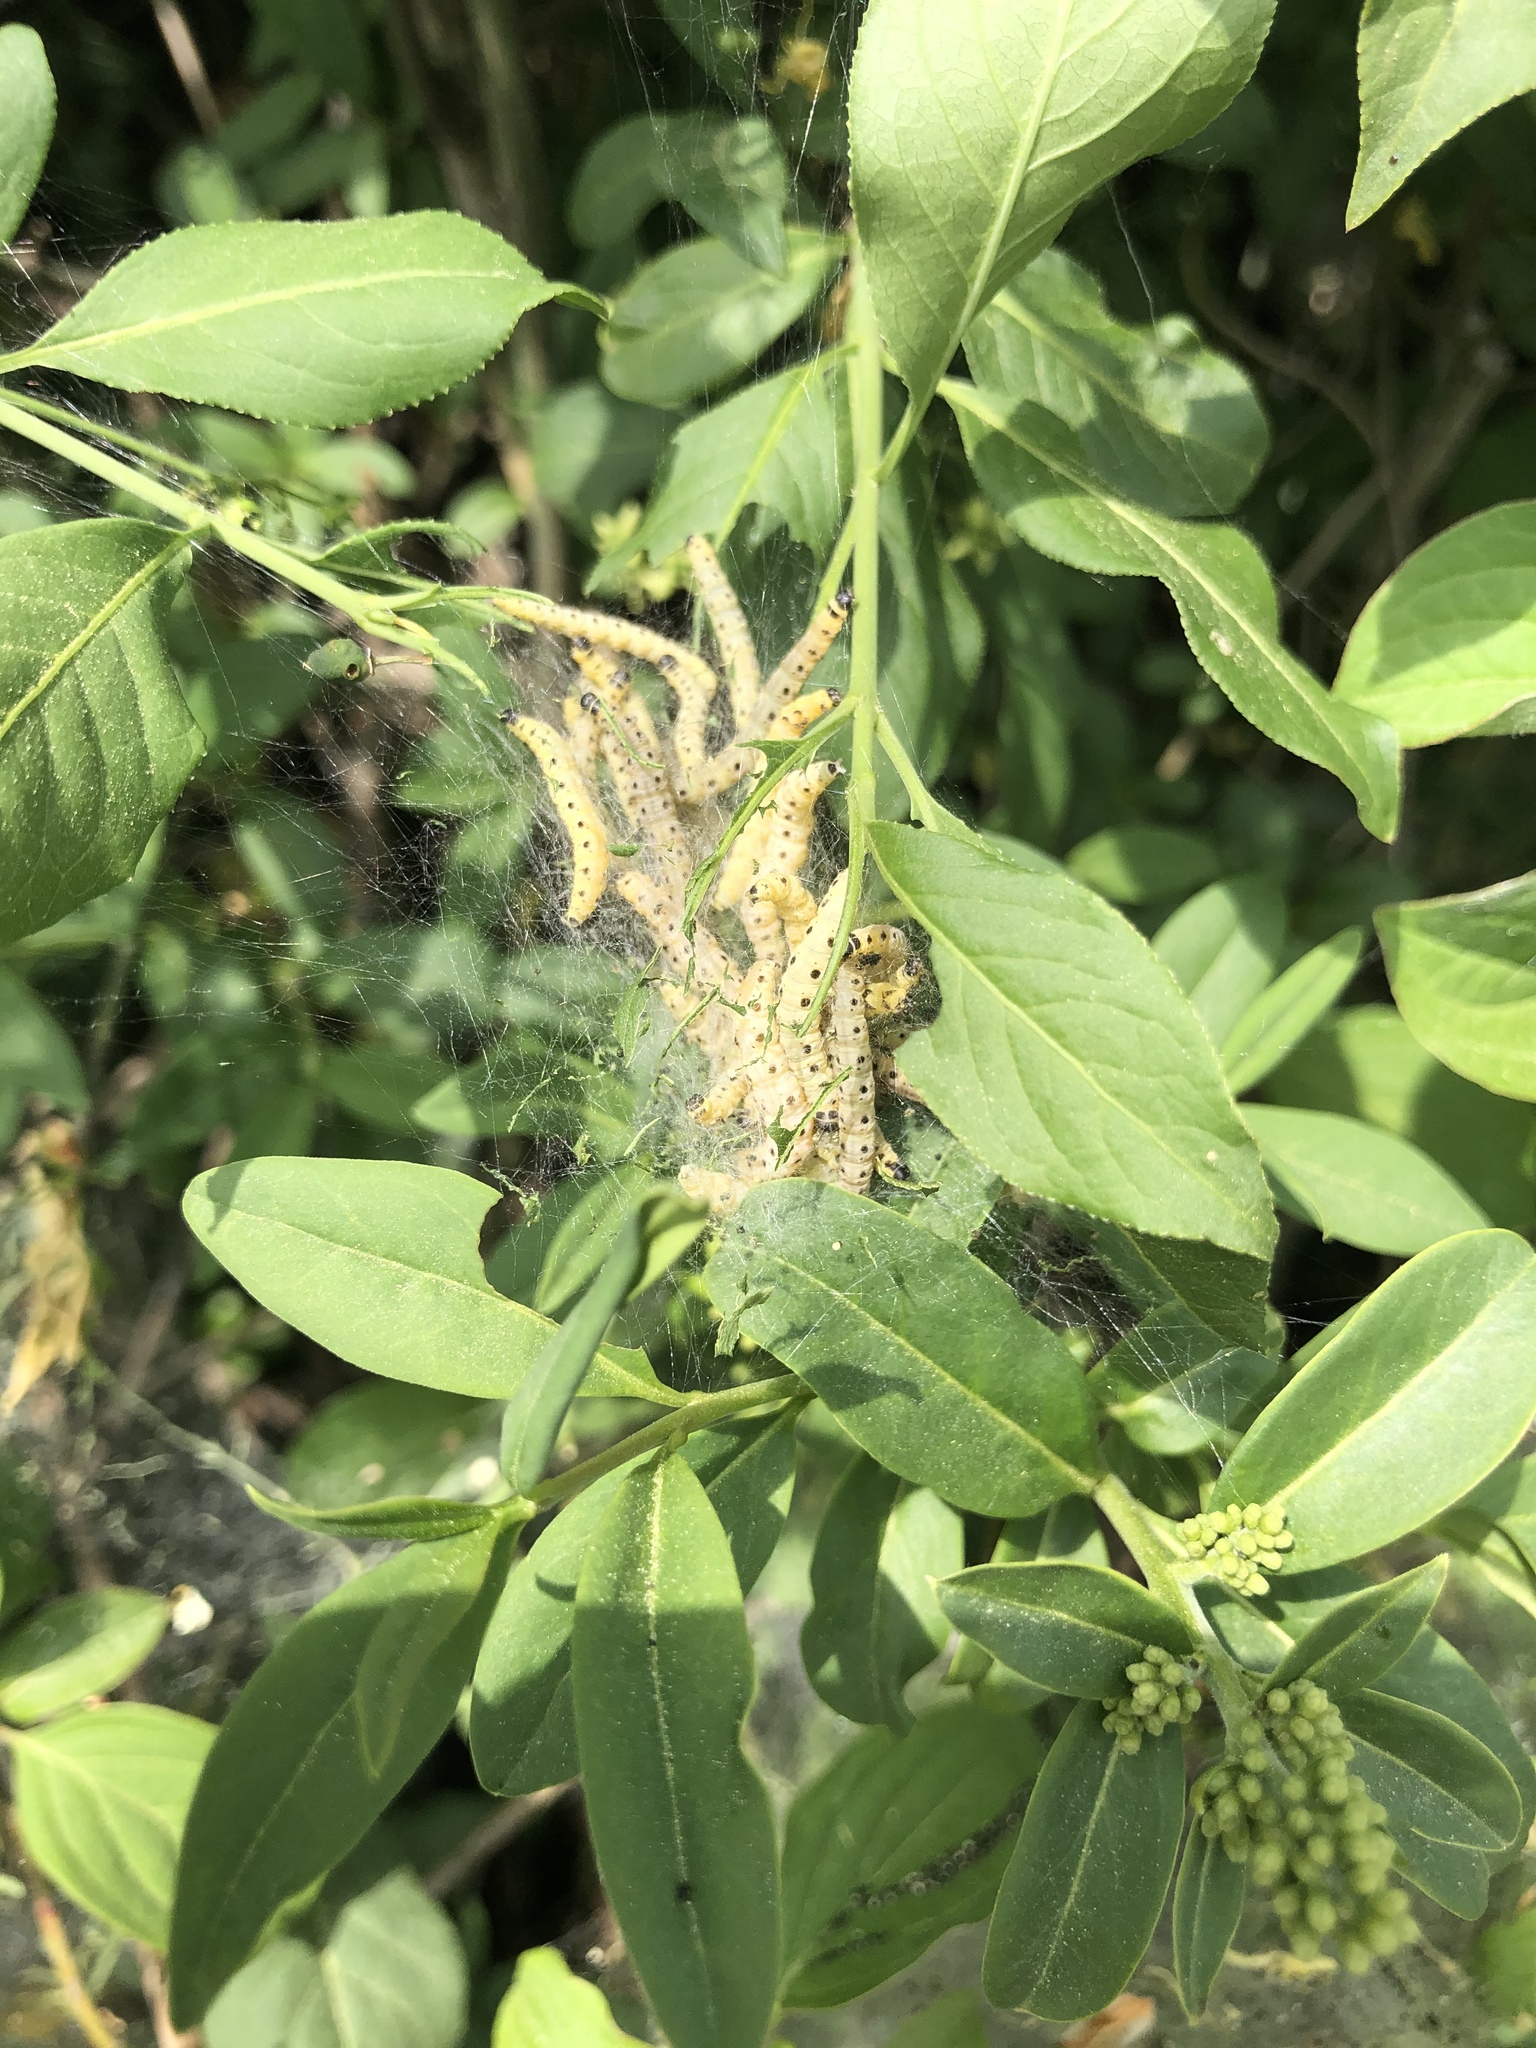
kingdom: Animalia
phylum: Arthropoda
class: Insecta
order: Lepidoptera
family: Yponomeutidae
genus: Yponomeuta
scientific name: Yponomeuta cagnagellus
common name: Spindle ermine
